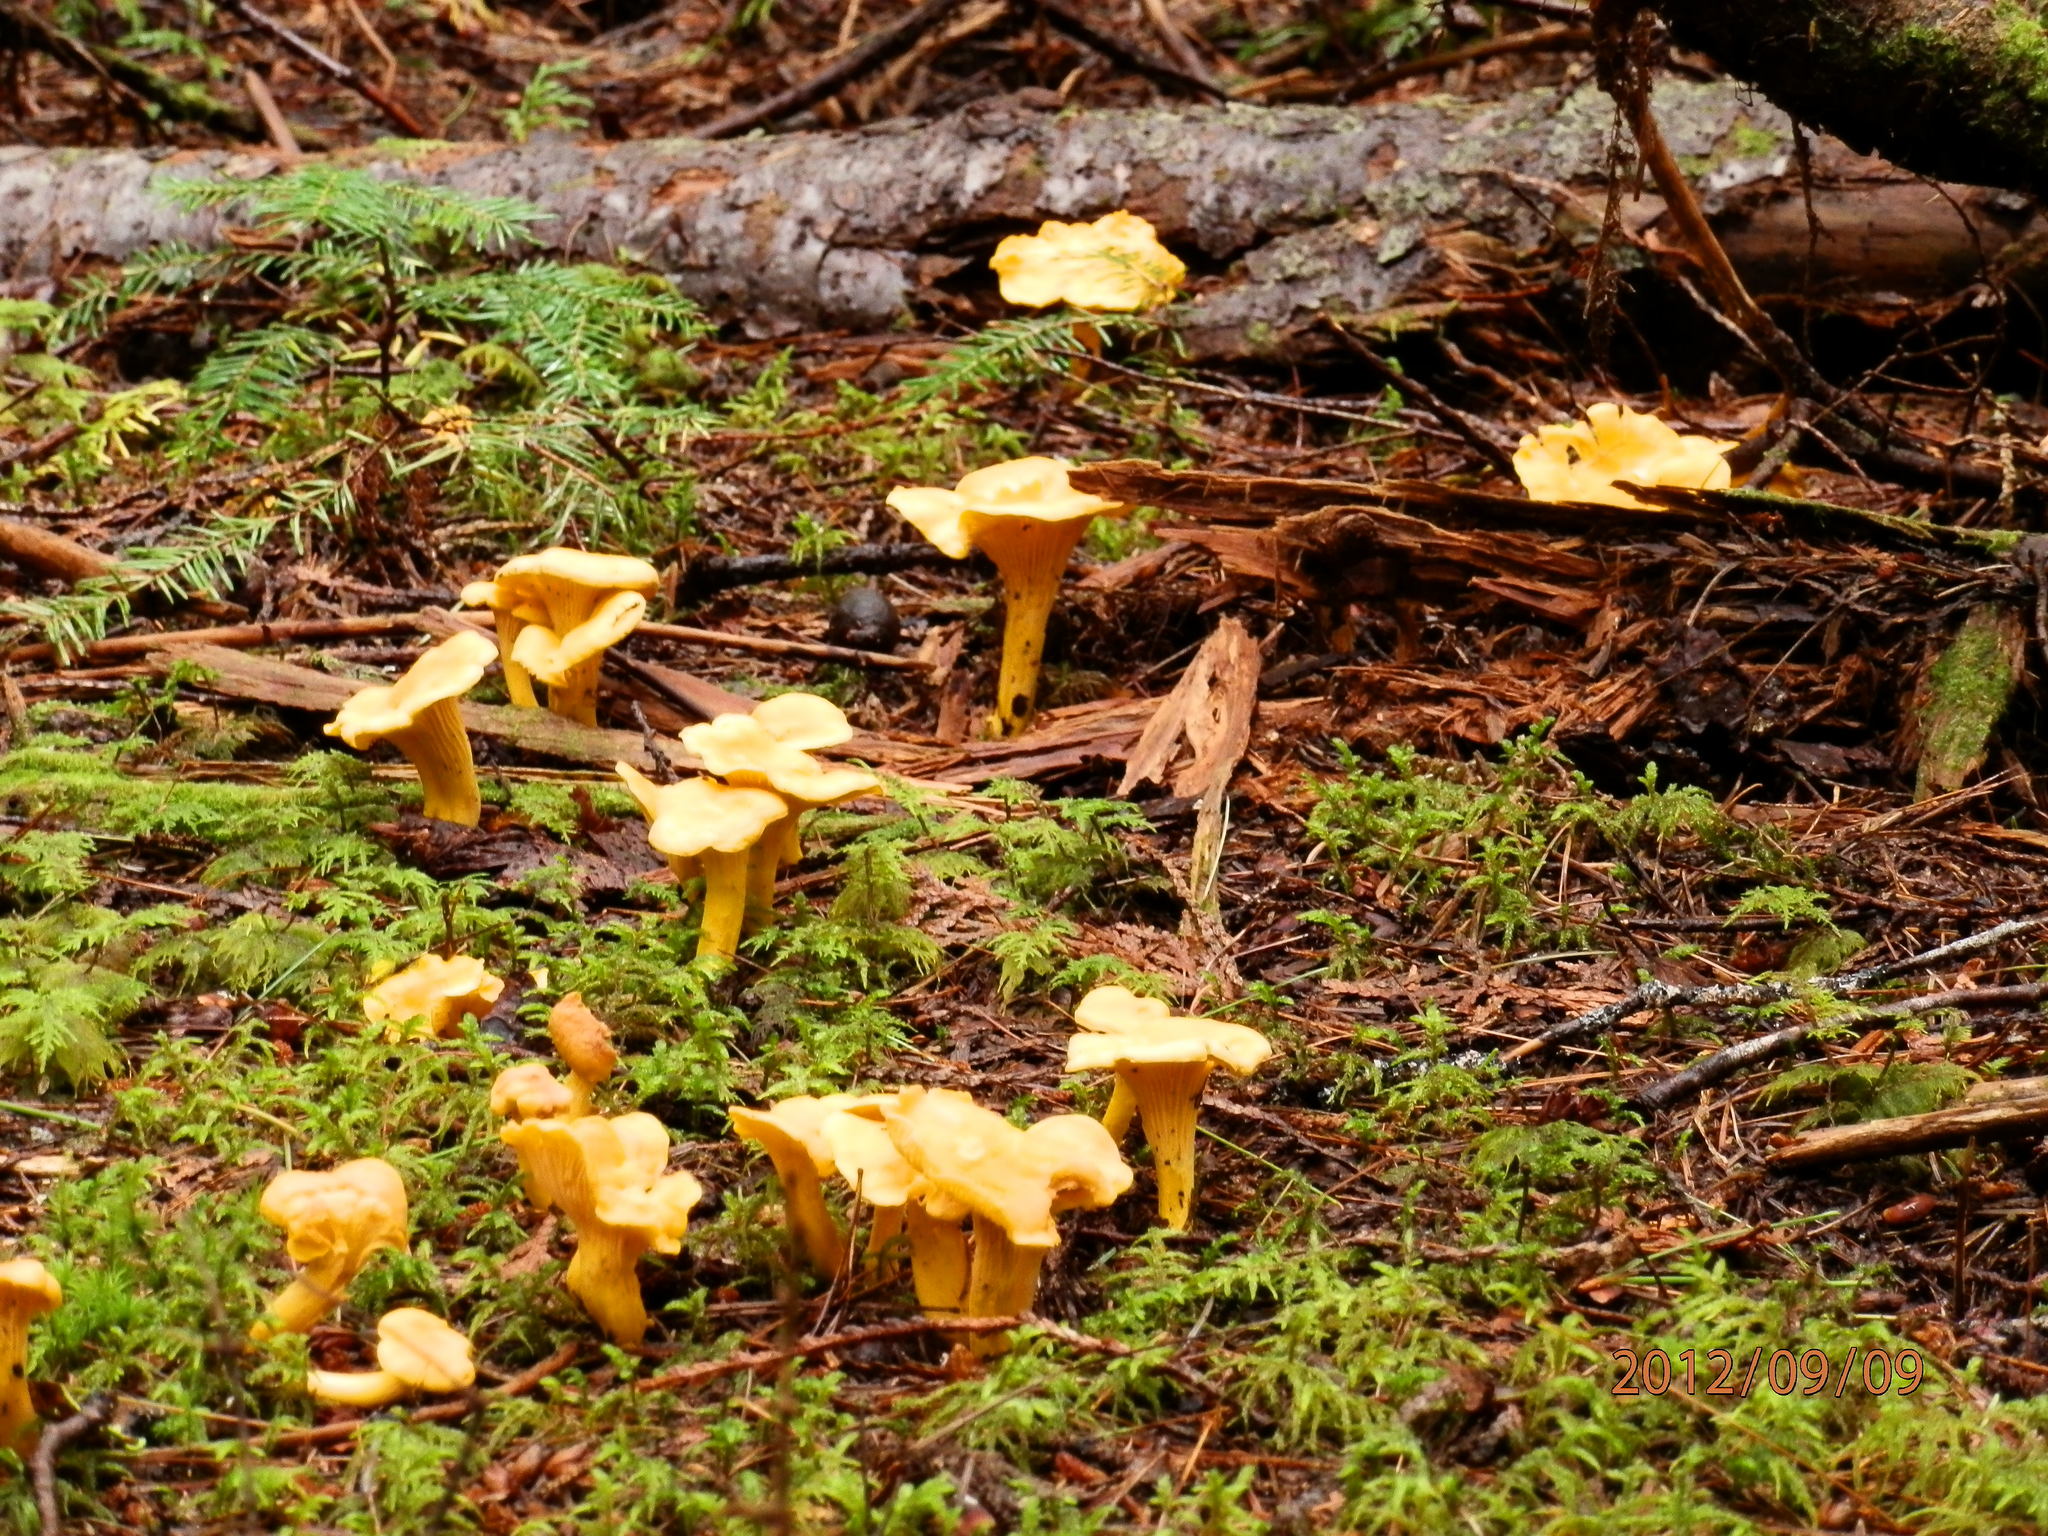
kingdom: Fungi
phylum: Basidiomycota
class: Agaricomycetes
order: Cantharellales
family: Hydnaceae
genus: Cantharellus
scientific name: Cantharellus enelensis
